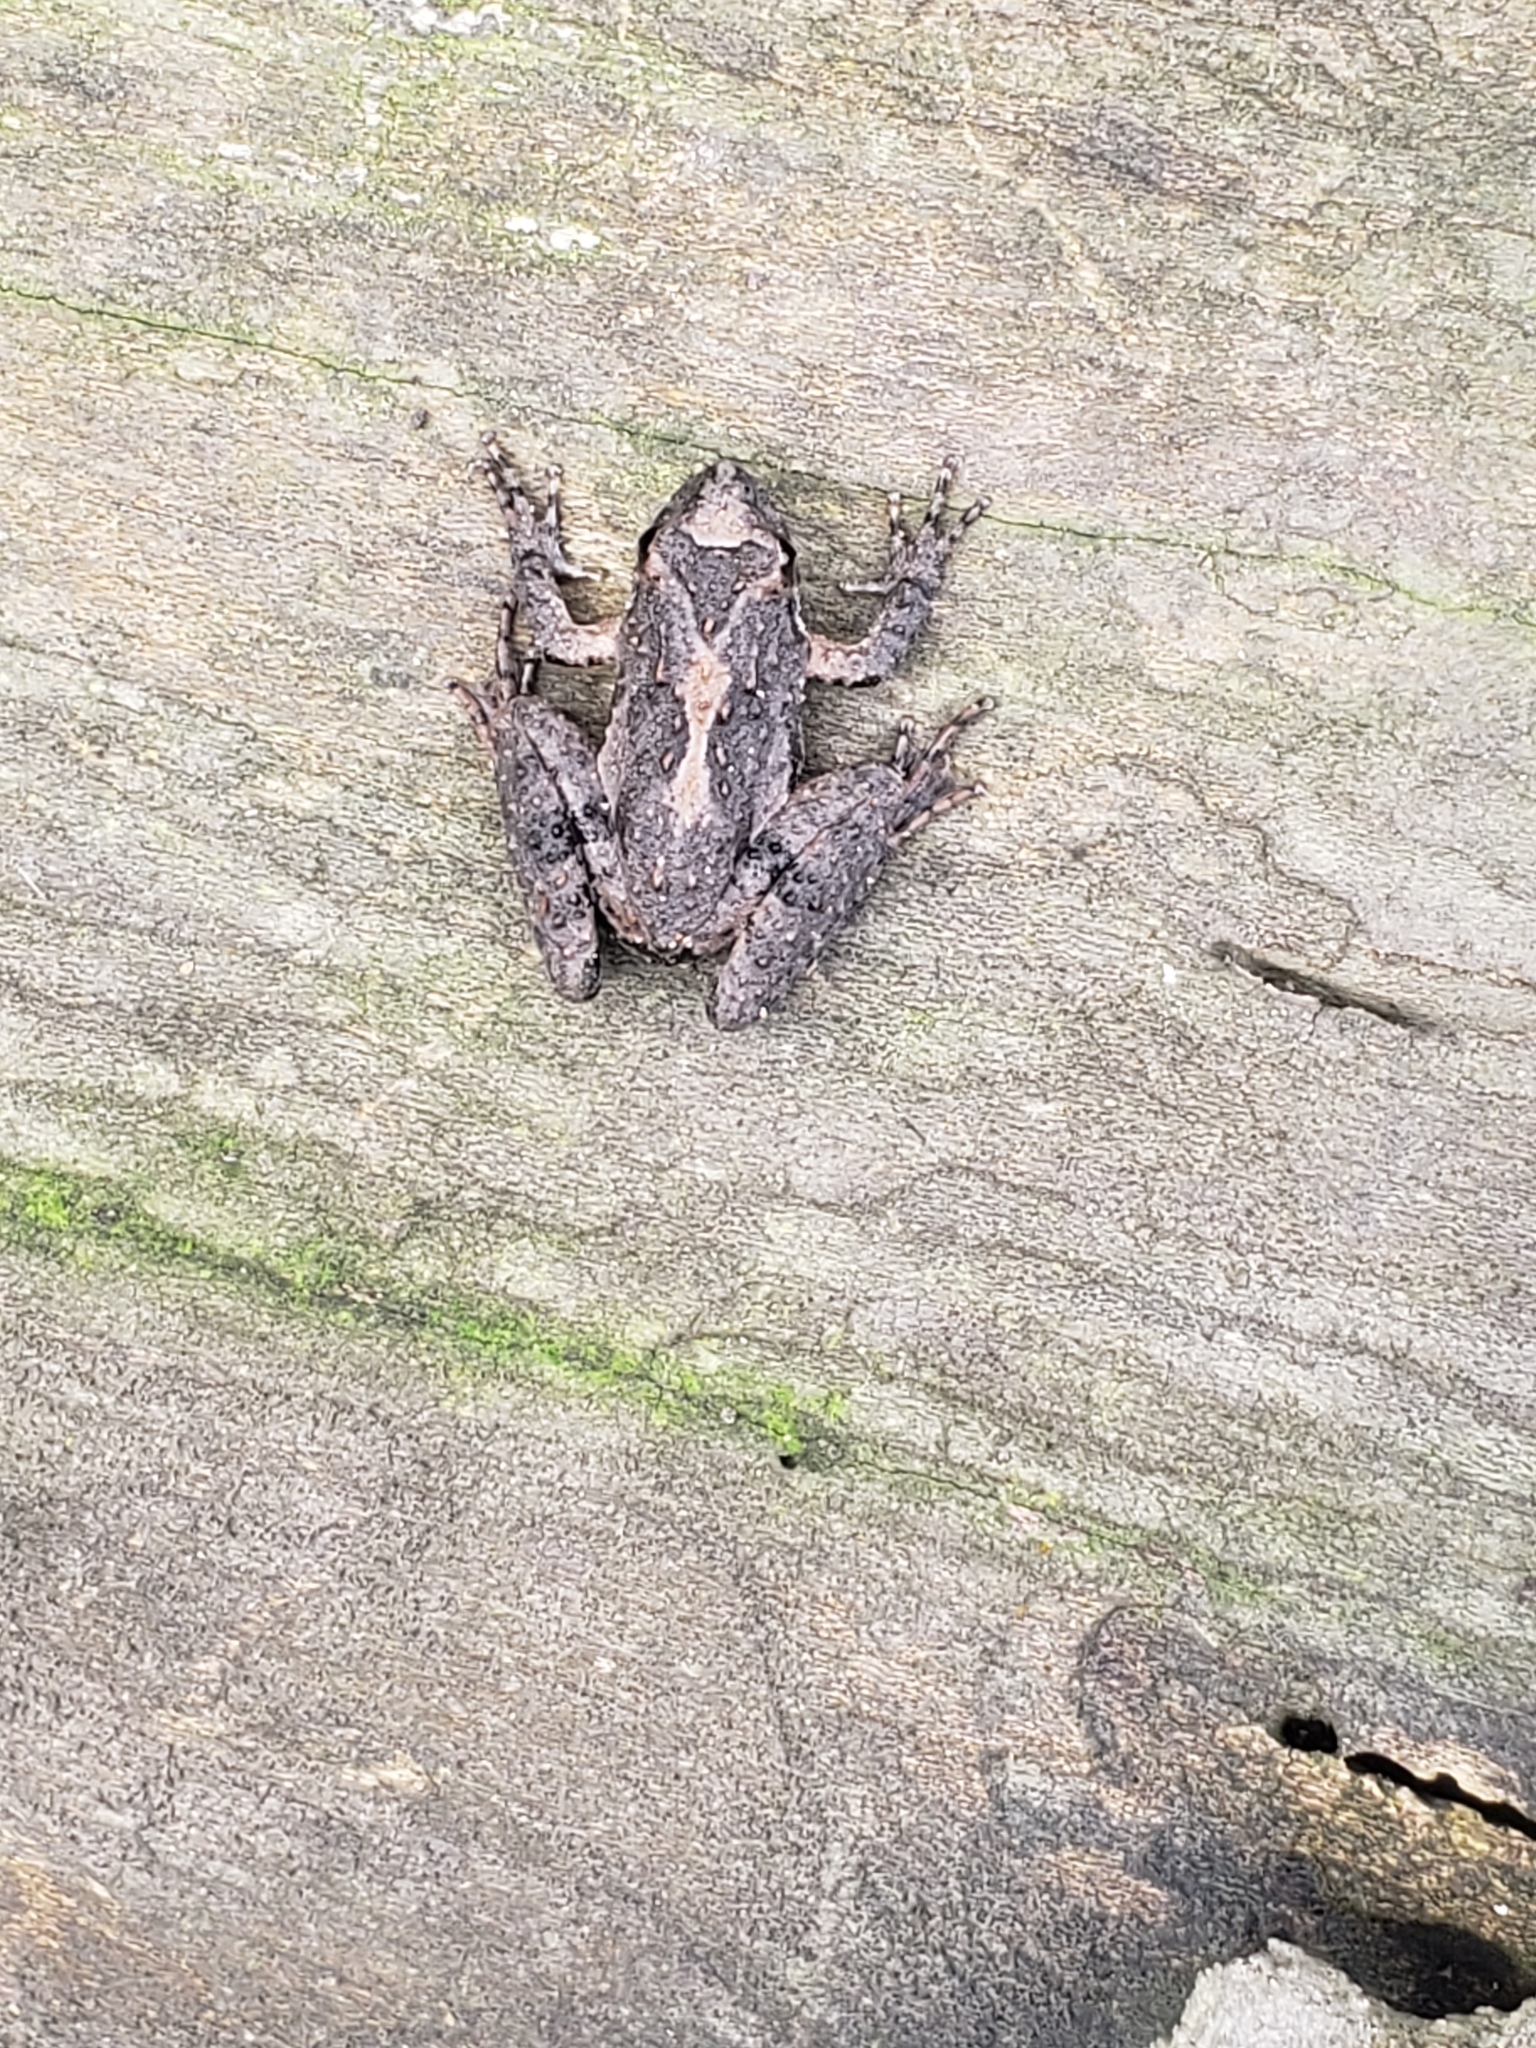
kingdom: Animalia
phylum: Chordata
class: Amphibia
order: Anura
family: Hylidae
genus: Acris
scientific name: Acris blanchardi
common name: Blanchard's cricket frog
